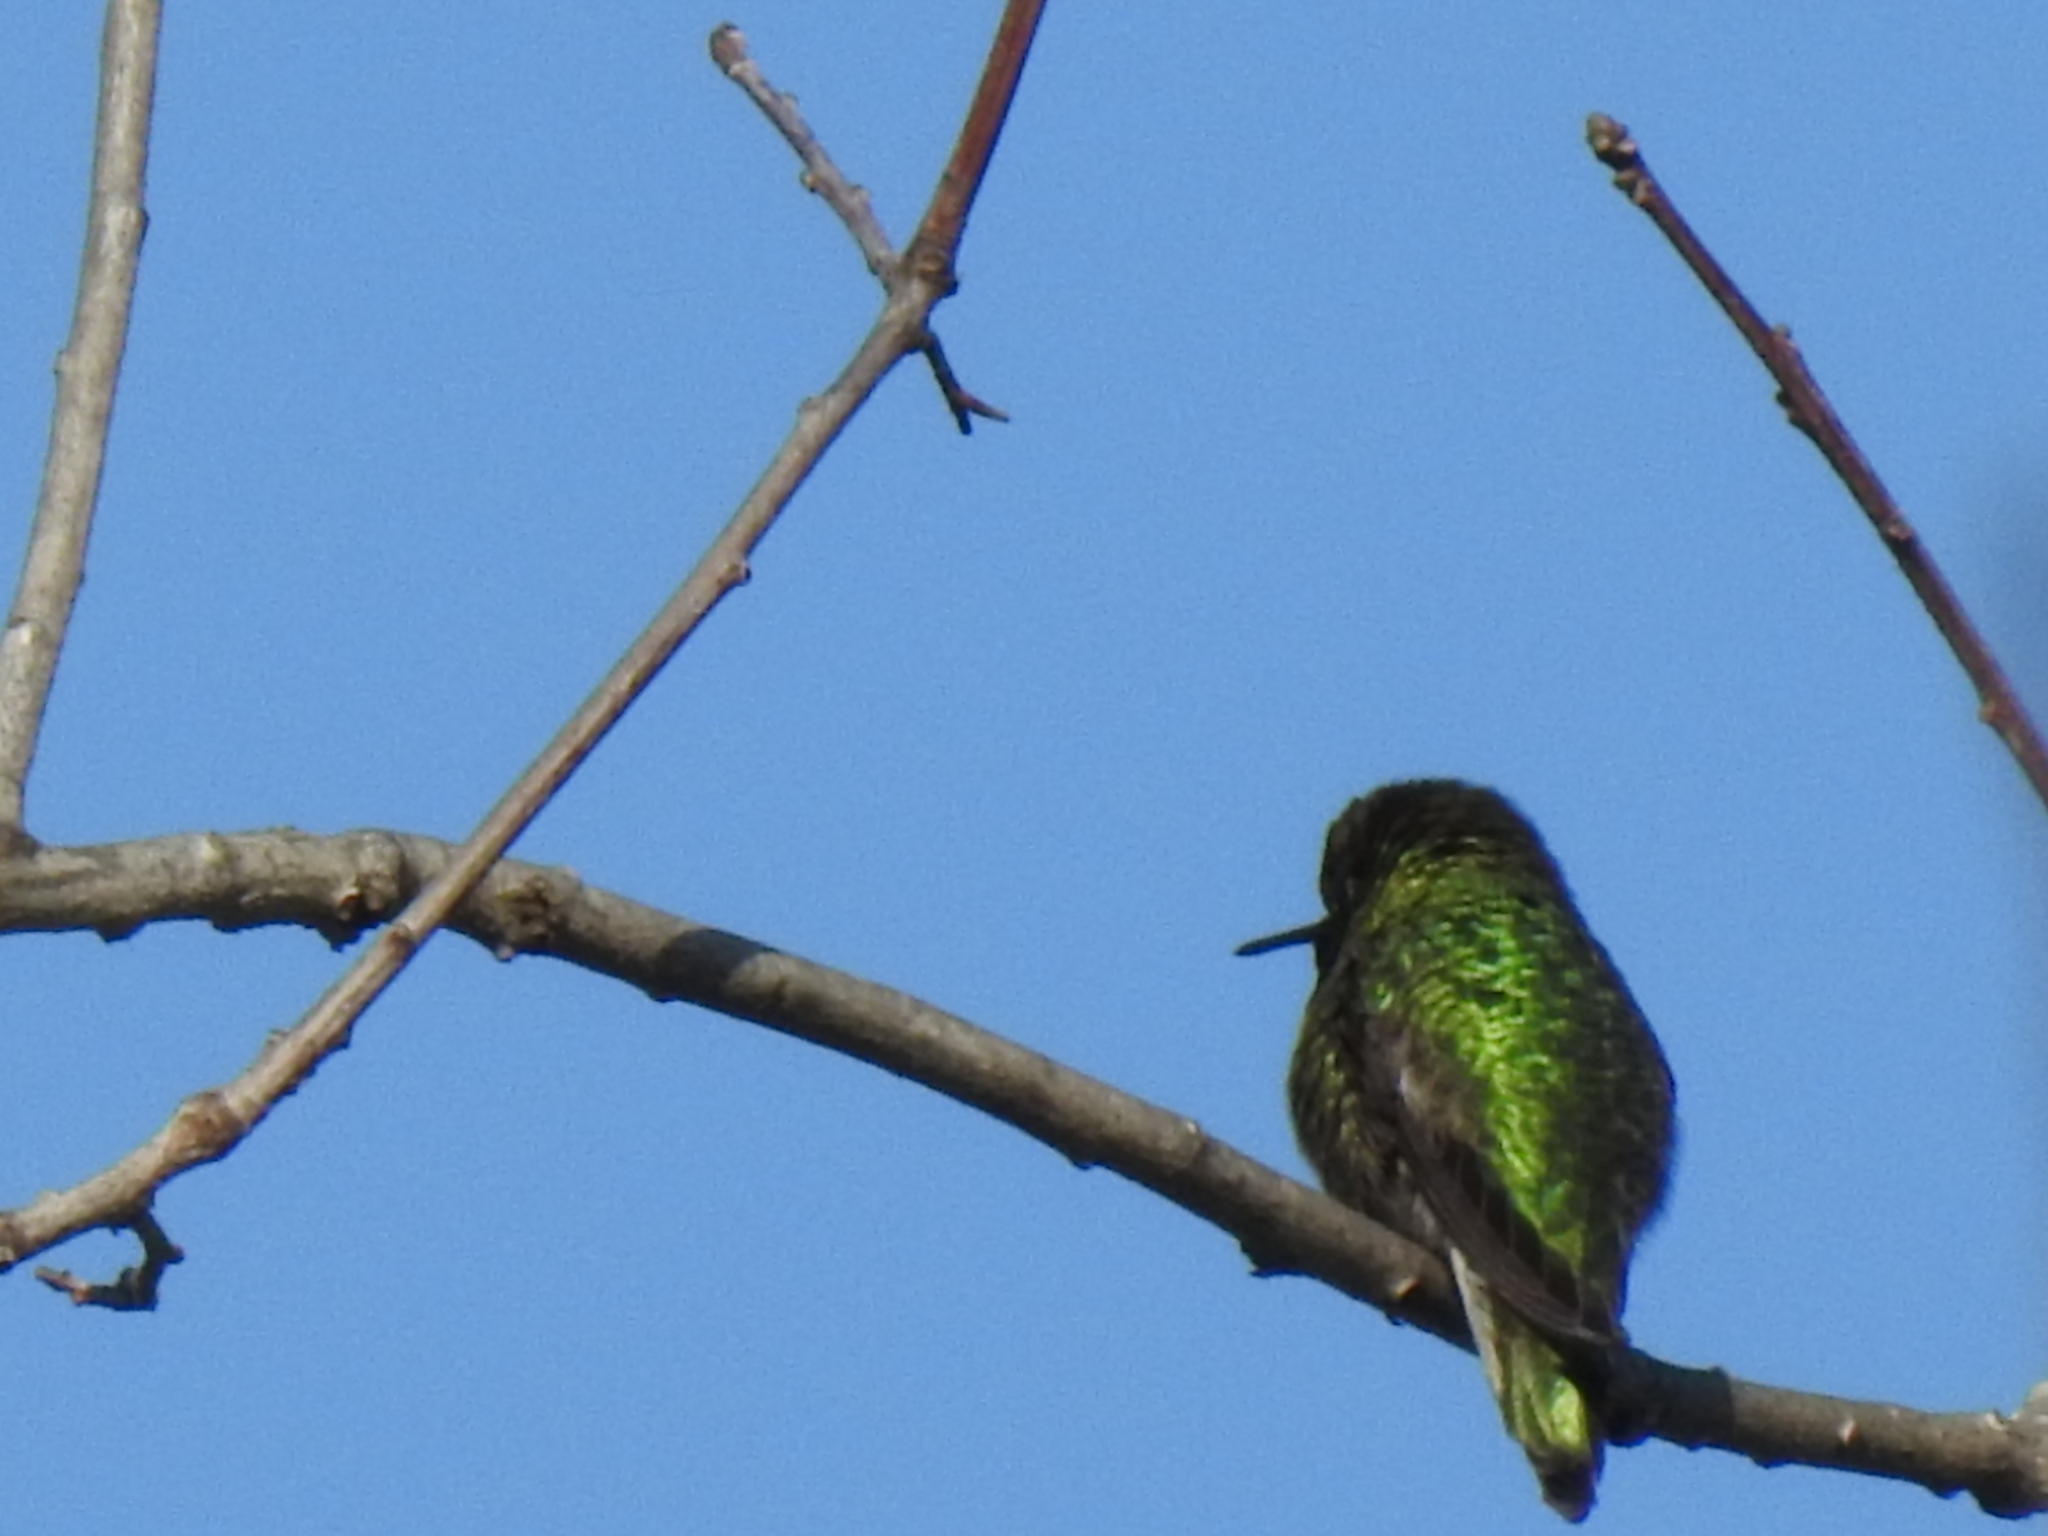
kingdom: Animalia
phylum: Chordata
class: Aves
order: Apodiformes
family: Trochilidae
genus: Calypte
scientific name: Calypte anna
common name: Anna's hummingbird
